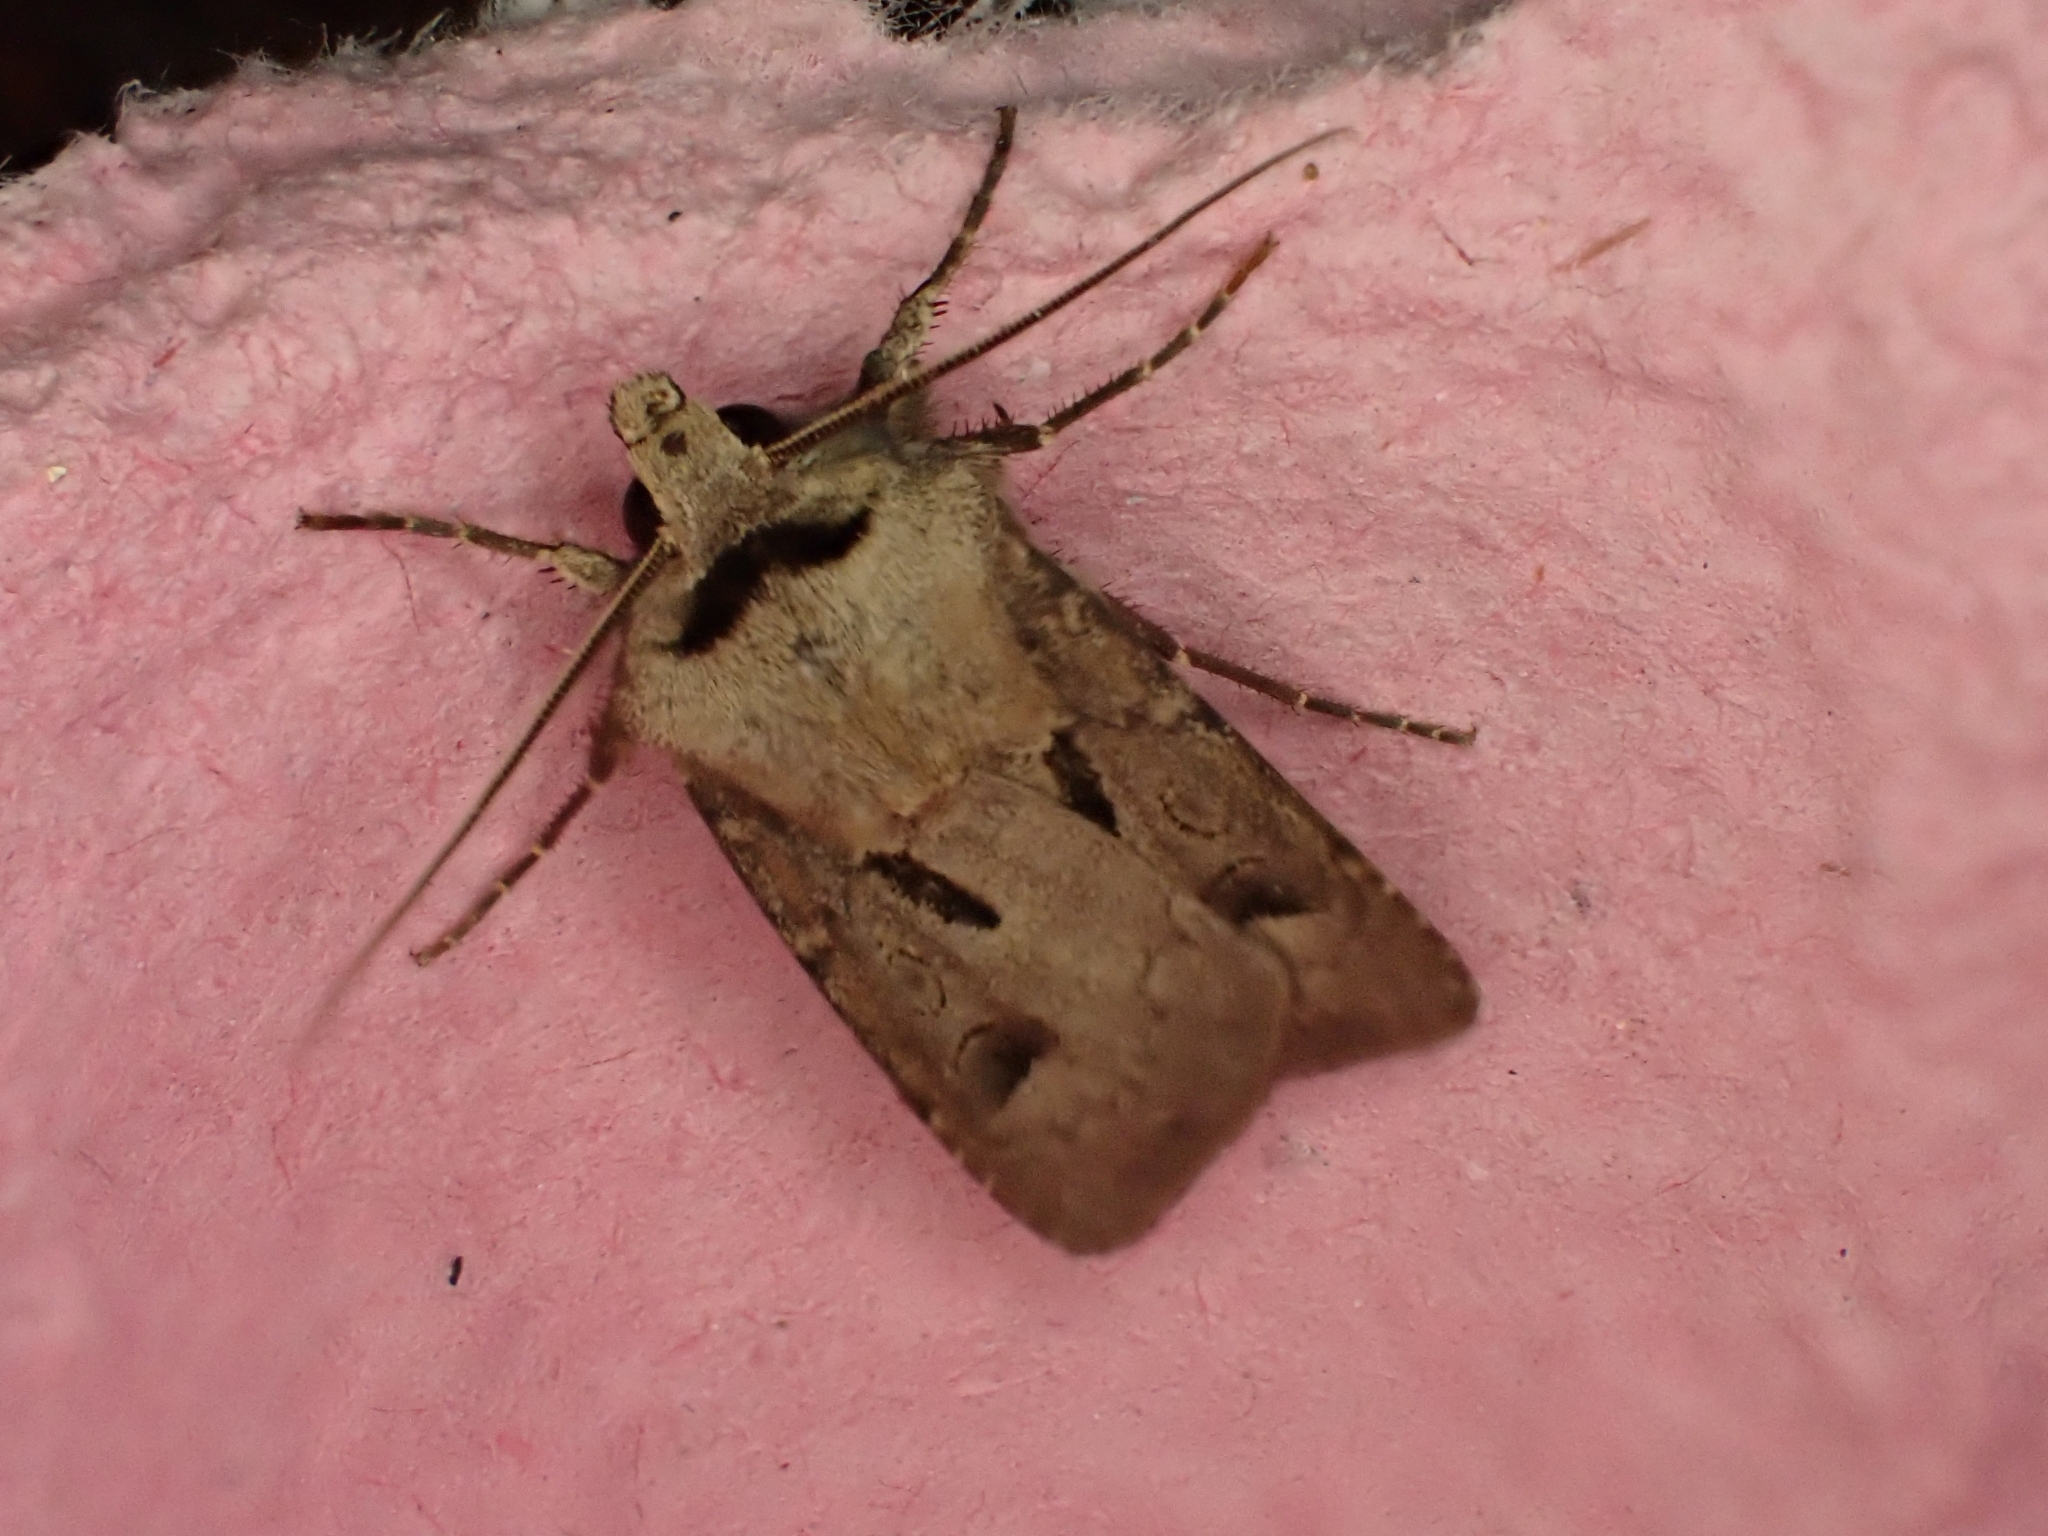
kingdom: Animalia
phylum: Arthropoda
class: Insecta
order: Lepidoptera
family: Noctuidae
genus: Agrotis
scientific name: Agrotis exclamationis
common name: Heart and dart
